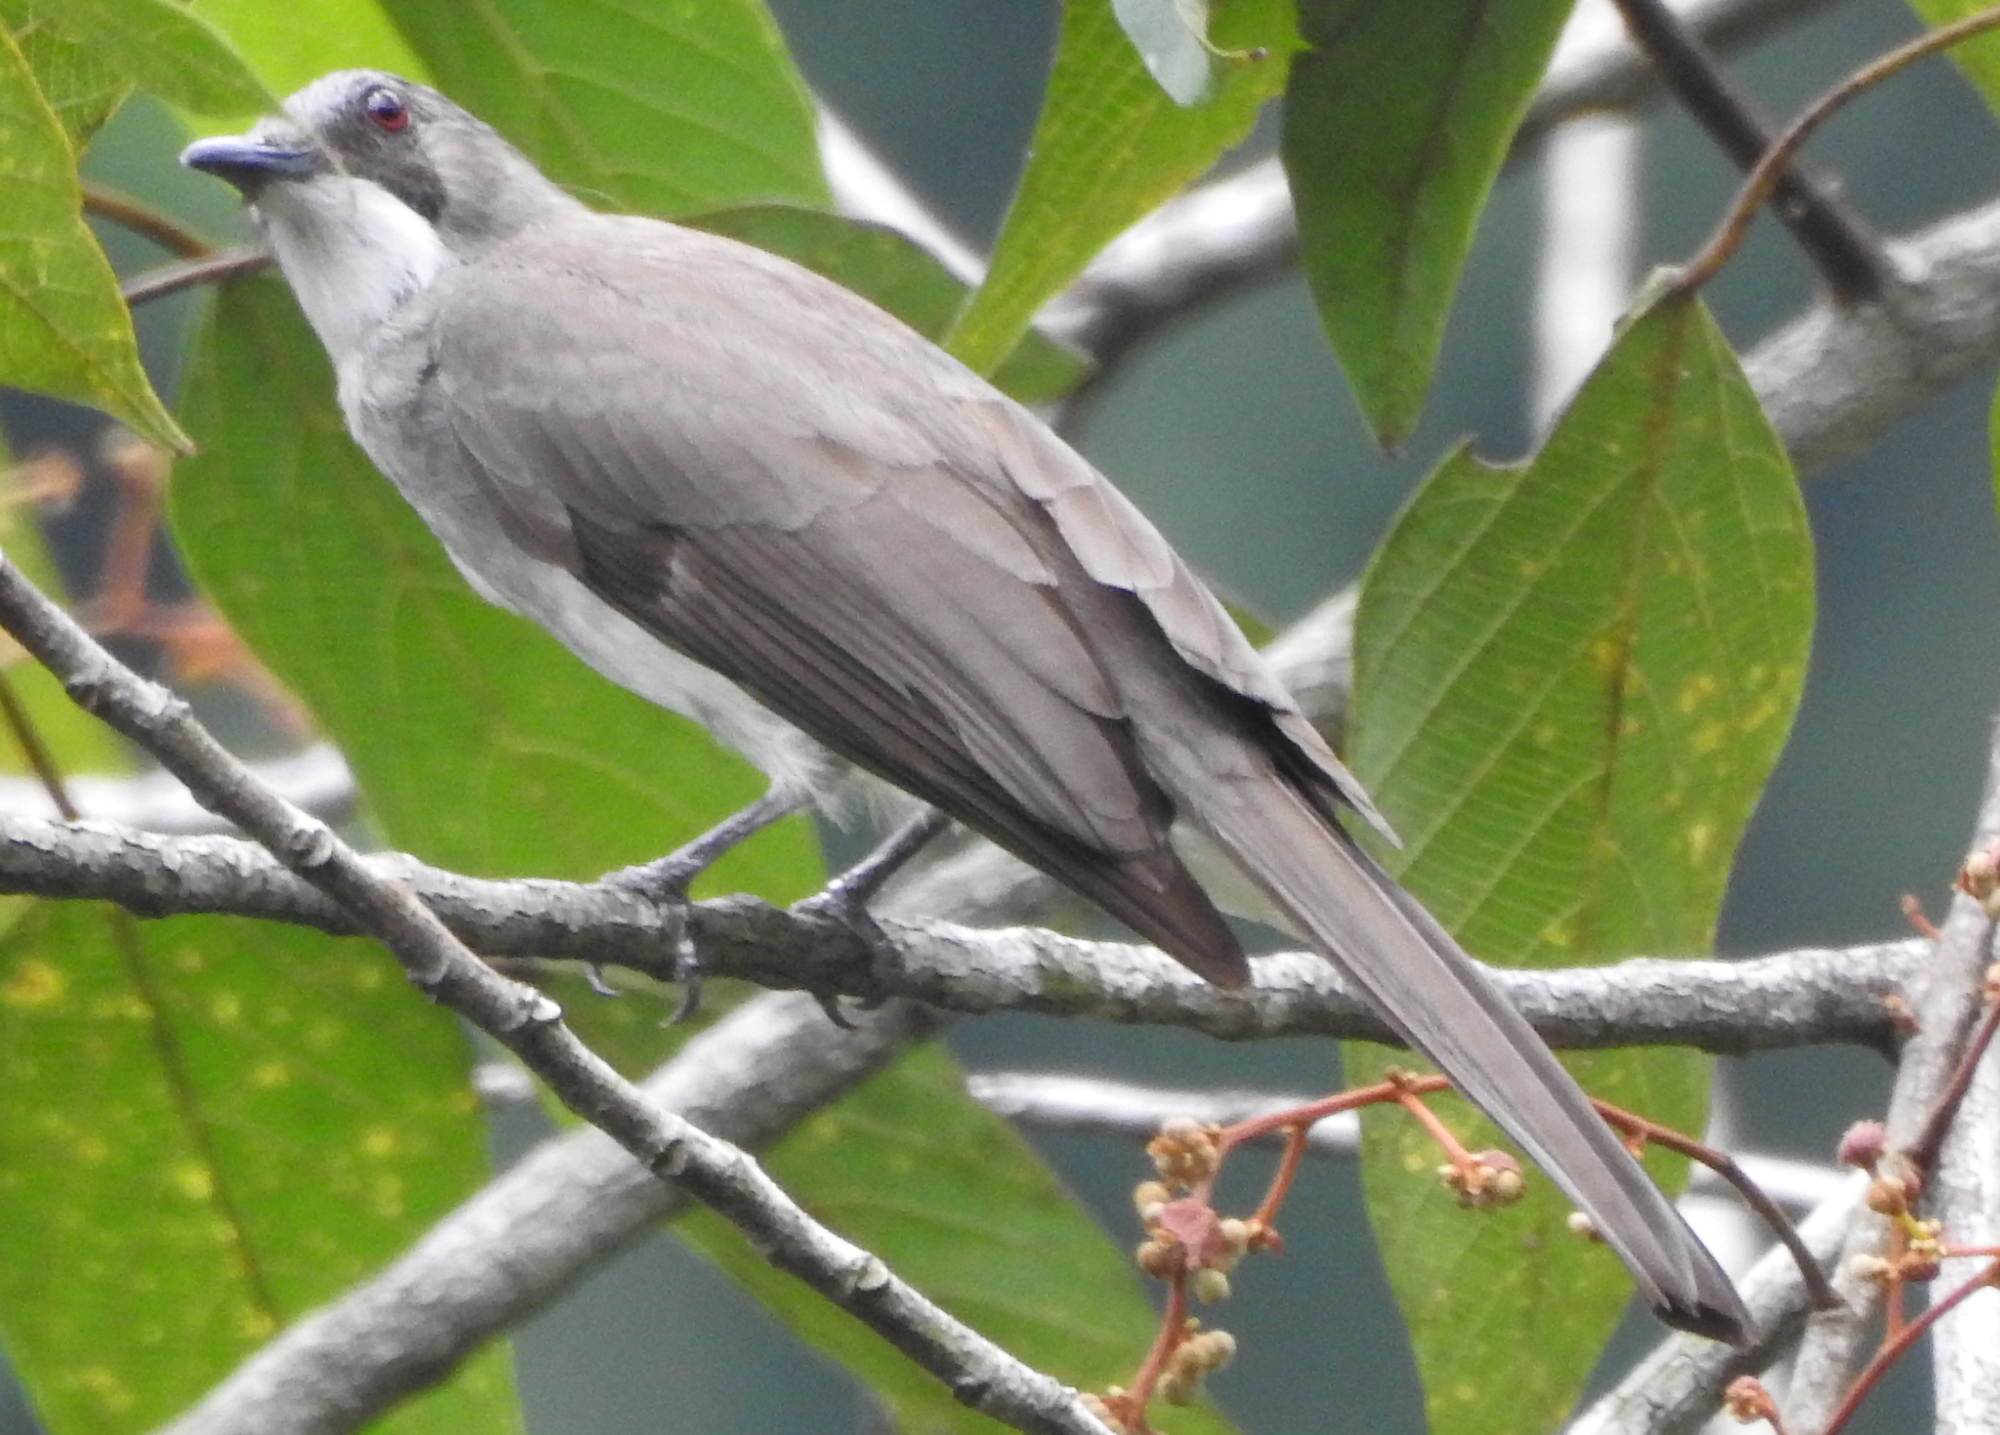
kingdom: Animalia
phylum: Chordata
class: Aves
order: Passeriformes
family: Pycnonotidae
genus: Hemixos
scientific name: Hemixos cinereus
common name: Cinereous bulbul
